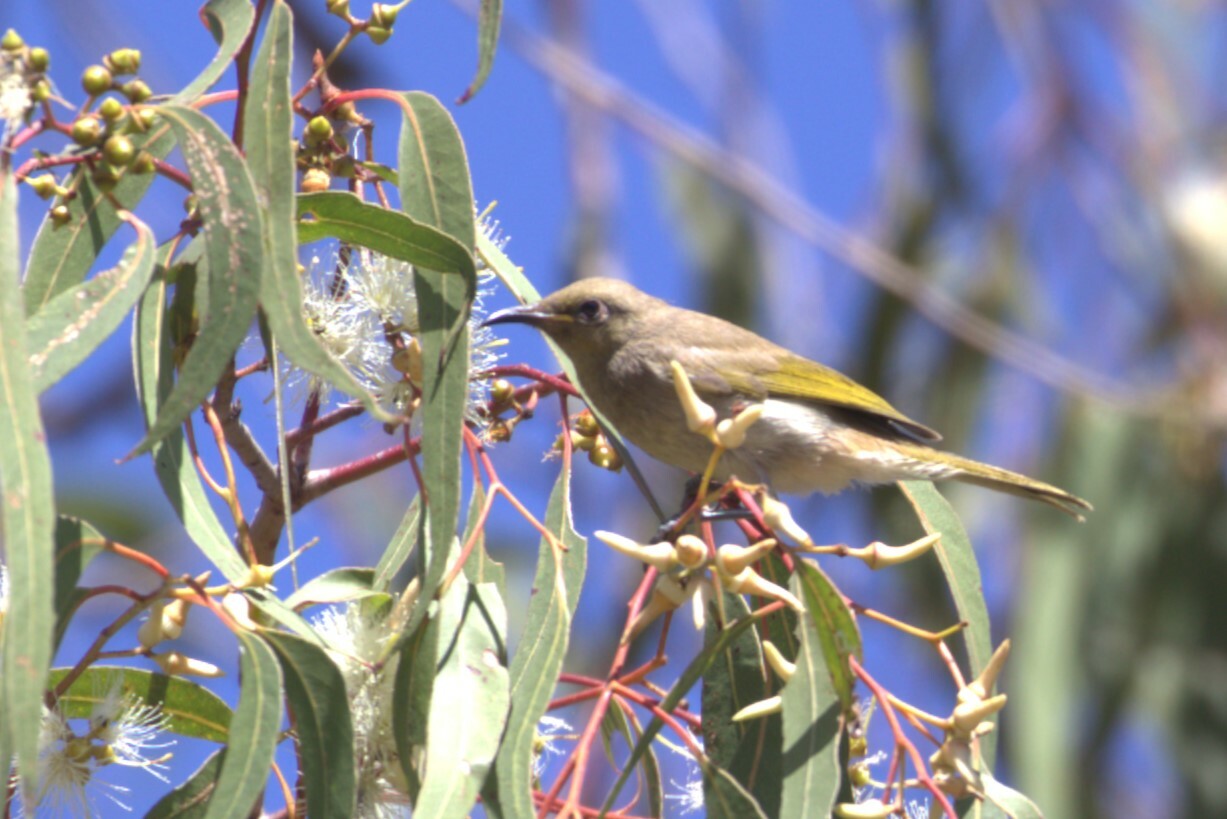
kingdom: Animalia
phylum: Chordata
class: Aves
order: Passeriformes
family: Meliphagidae
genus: Lichmera
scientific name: Lichmera indistincta
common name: Brown honeyeater
